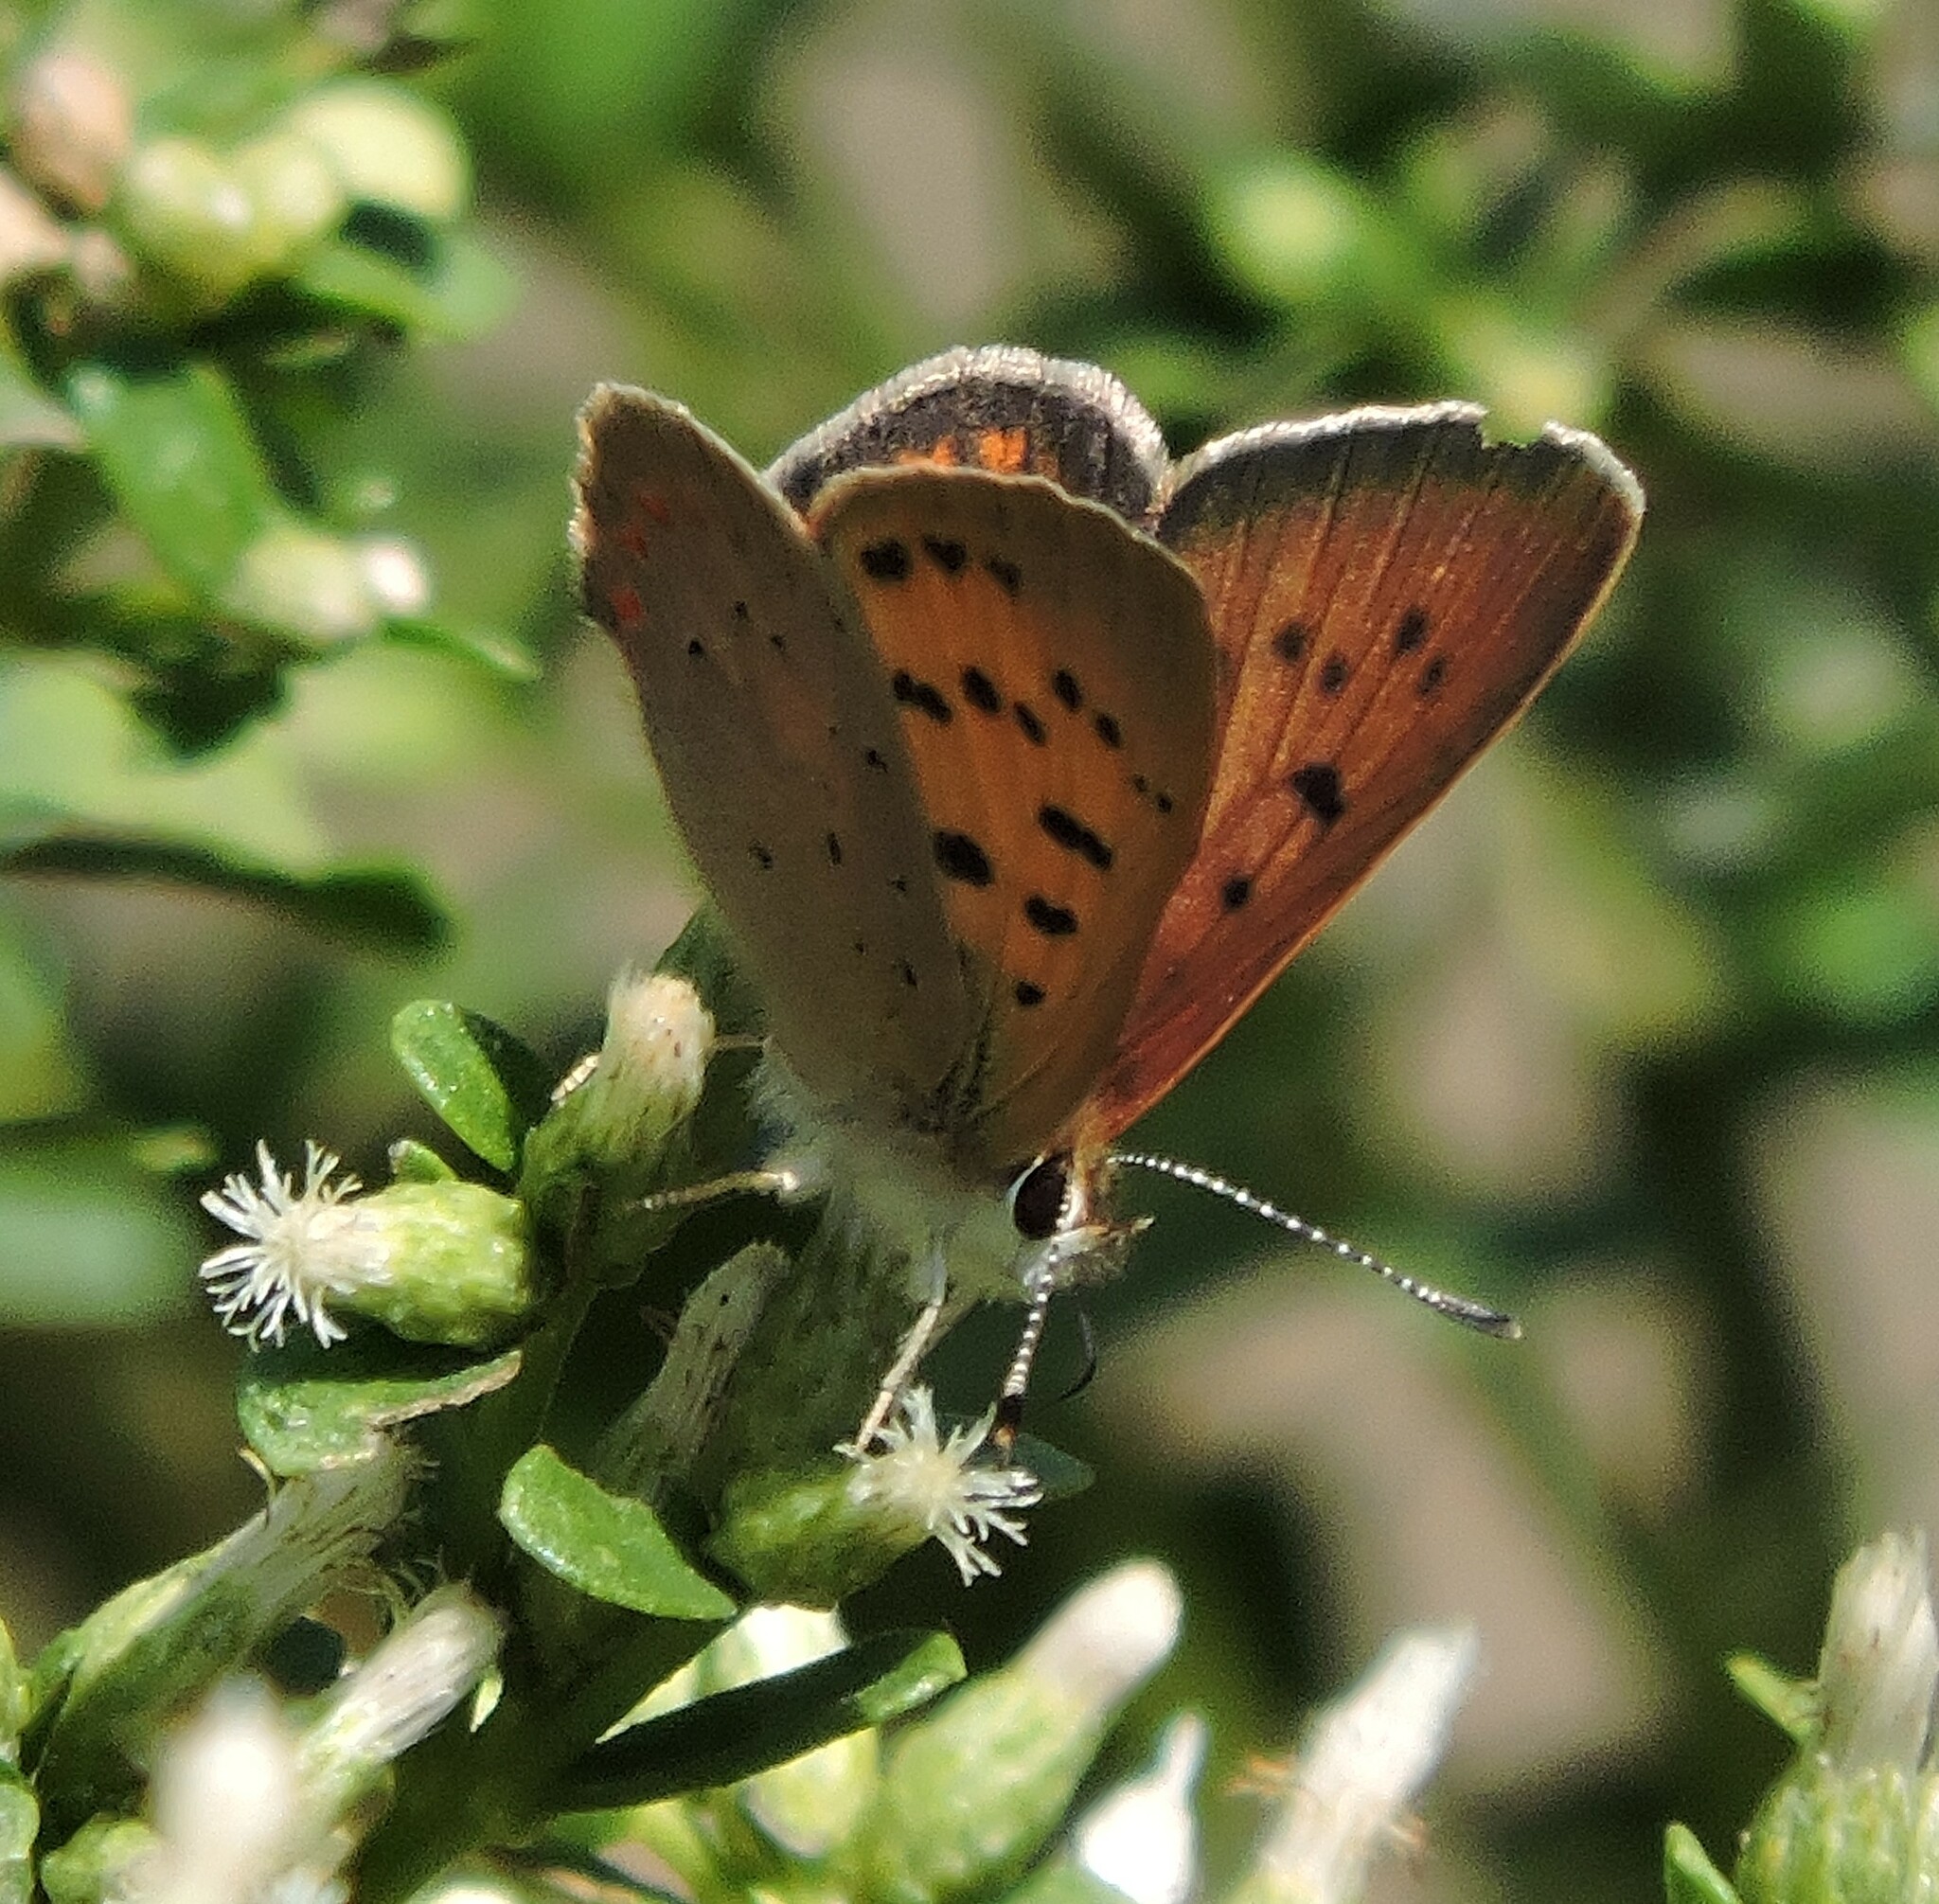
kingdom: Animalia
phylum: Arthropoda
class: Insecta
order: Lepidoptera
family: Lycaenidae
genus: Tharsalea
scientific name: Tharsalea helloides
